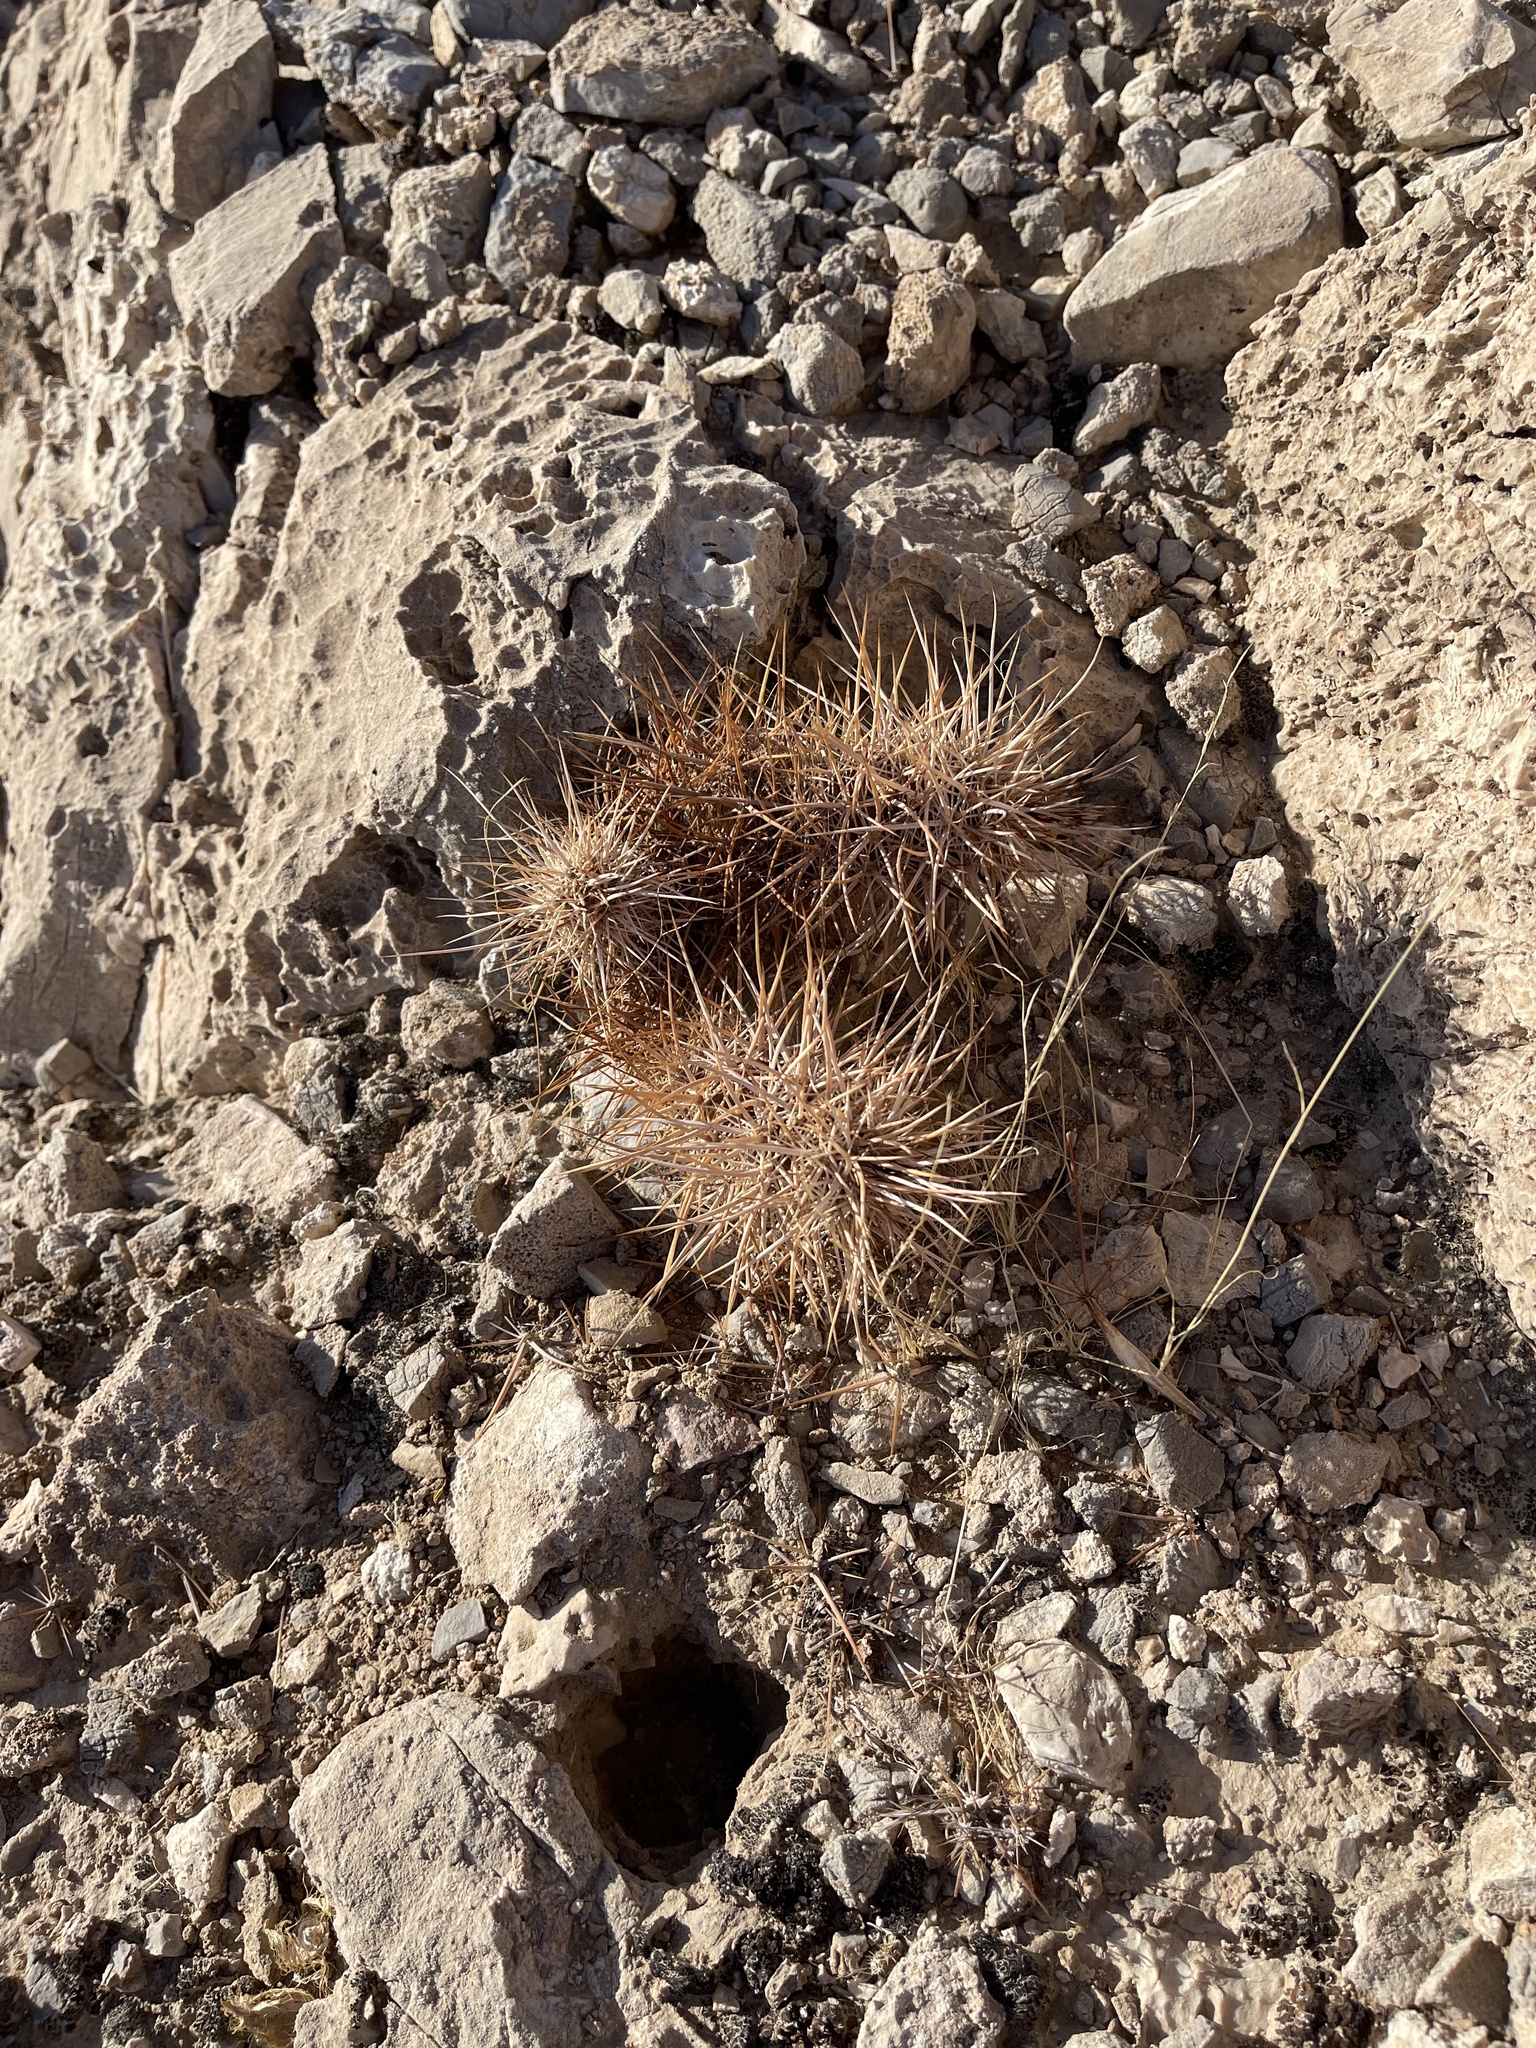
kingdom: Plantae
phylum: Tracheophyta
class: Magnoliopsida
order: Caryophyllales
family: Cactaceae
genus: Echinocereus
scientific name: Echinocereus engelmannii
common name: Engelmann's hedgehog cactus
